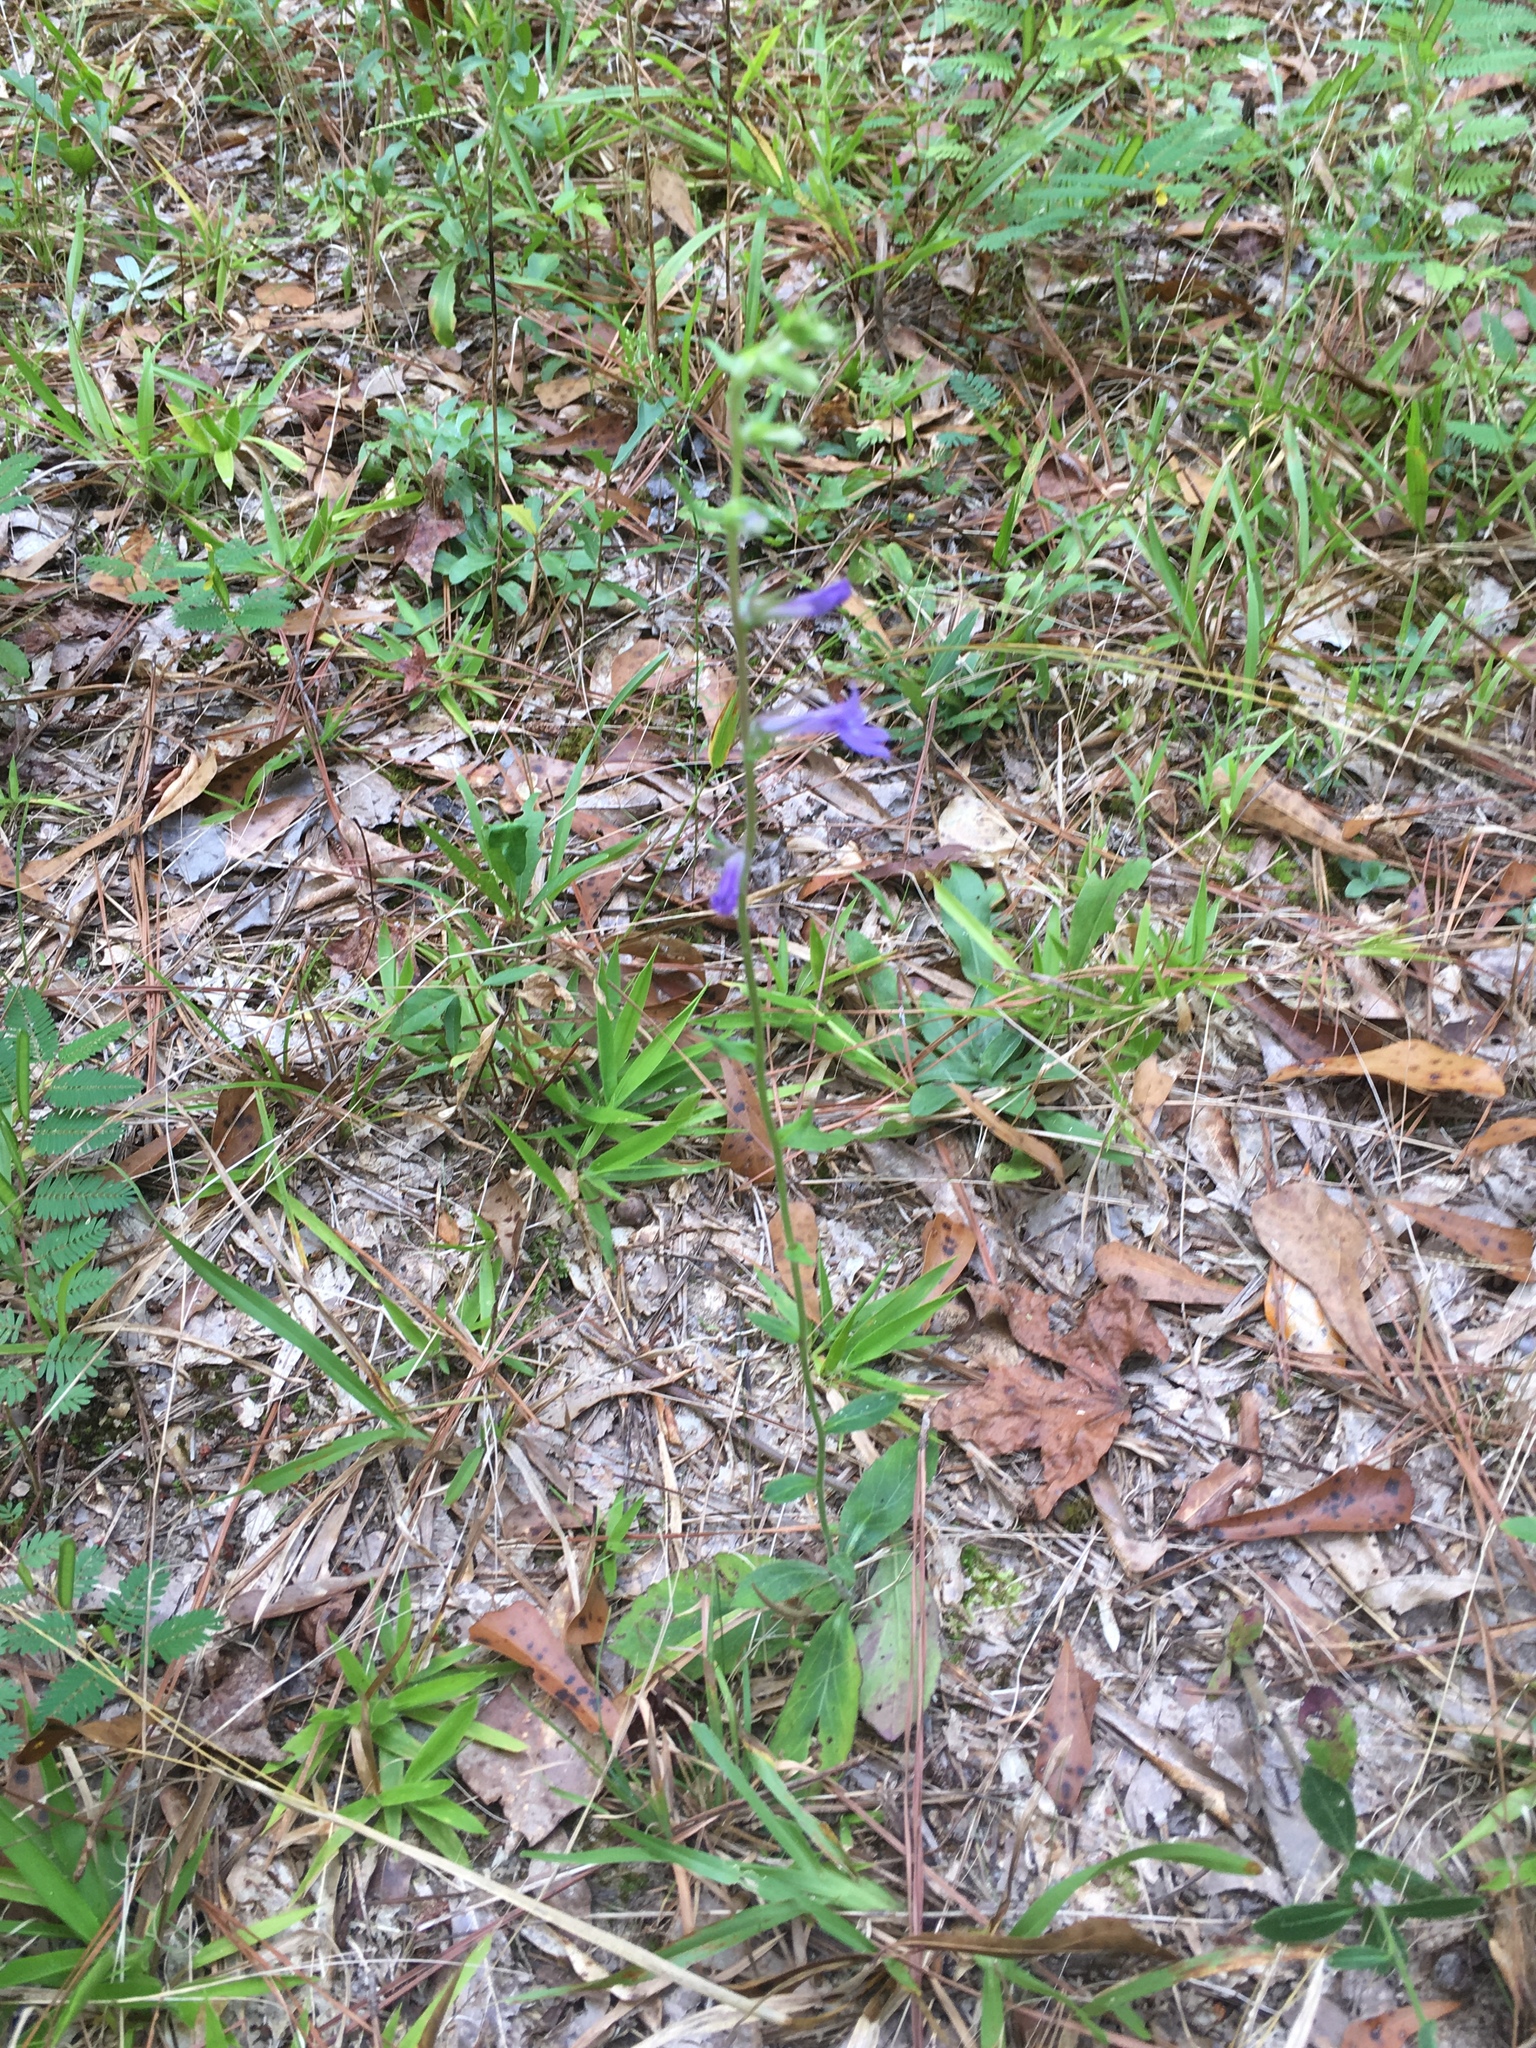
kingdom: Plantae
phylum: Tracheophyta
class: Magnoliopsida
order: Asterales
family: Campanulaceae
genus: Lobelia
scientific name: Lobelia puberula
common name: Purple dewdrop
